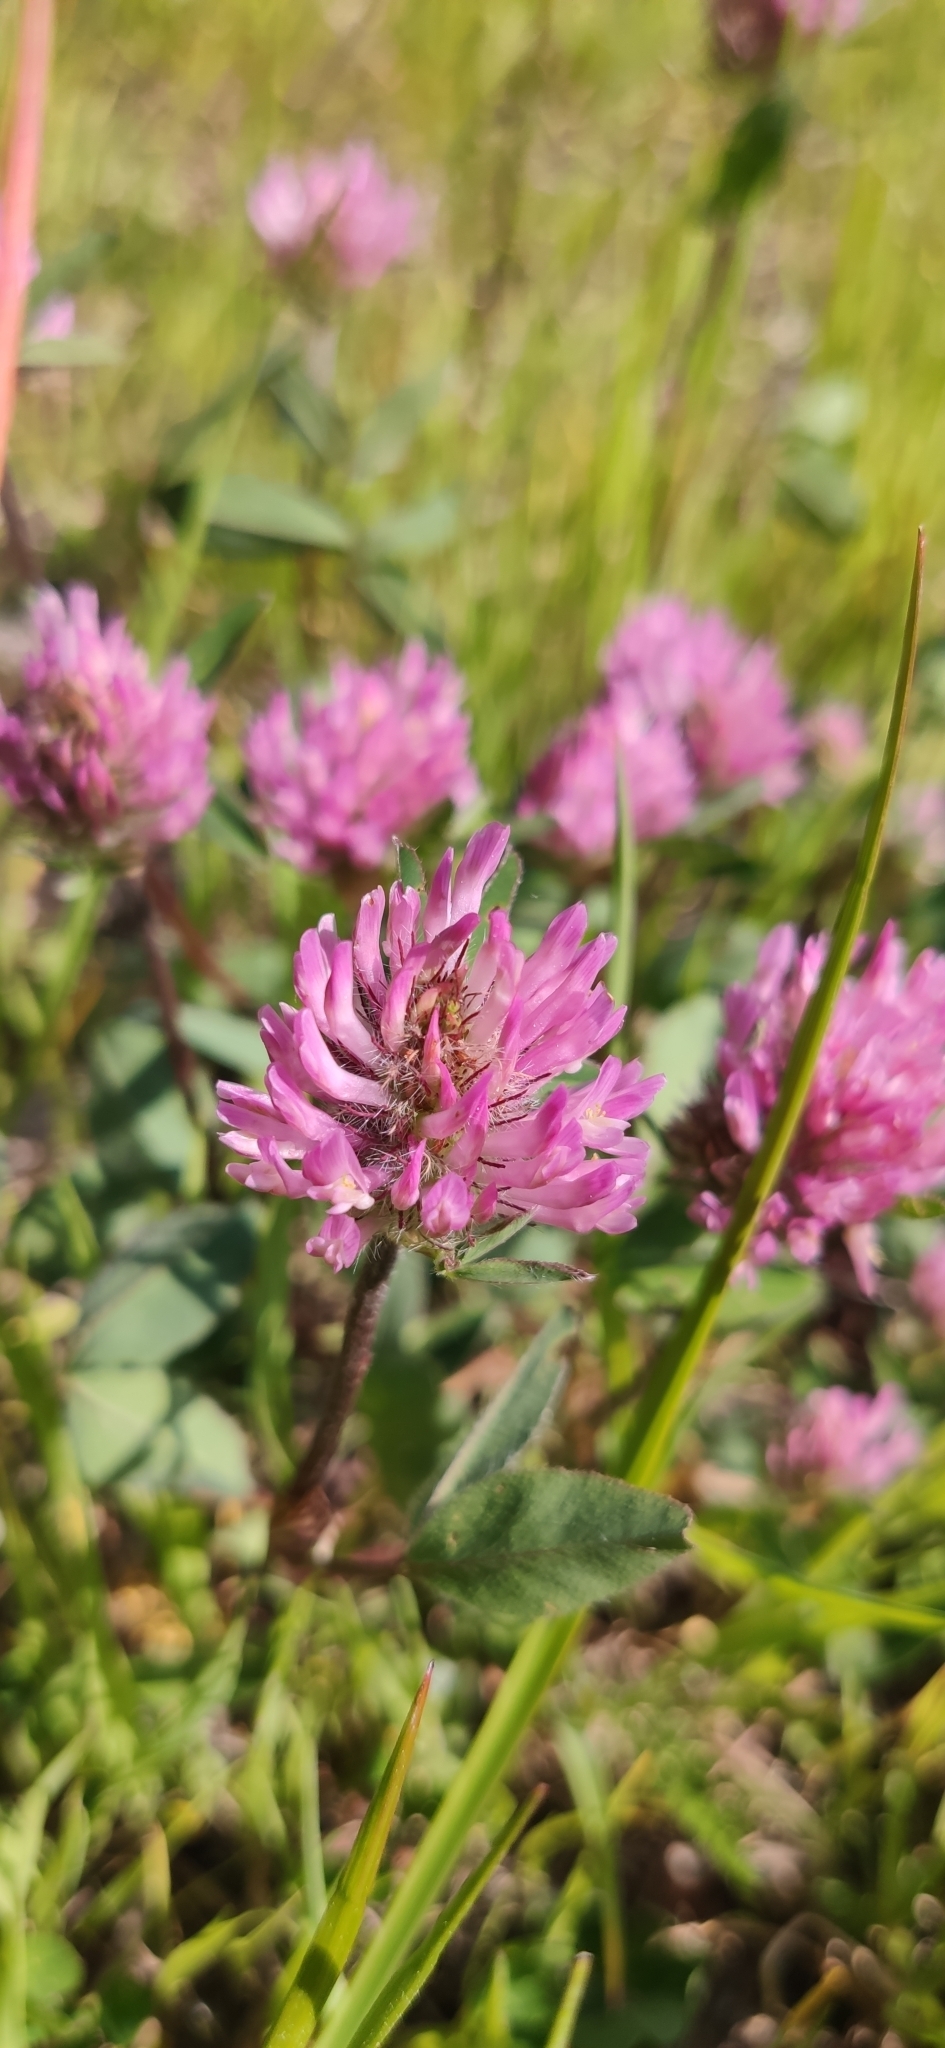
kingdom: Plantae
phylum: Tracheophyta
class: Magnoliopsida
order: Fabales
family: Fabaceae
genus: Trifolium
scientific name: Trifolium pratense
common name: Red clover
